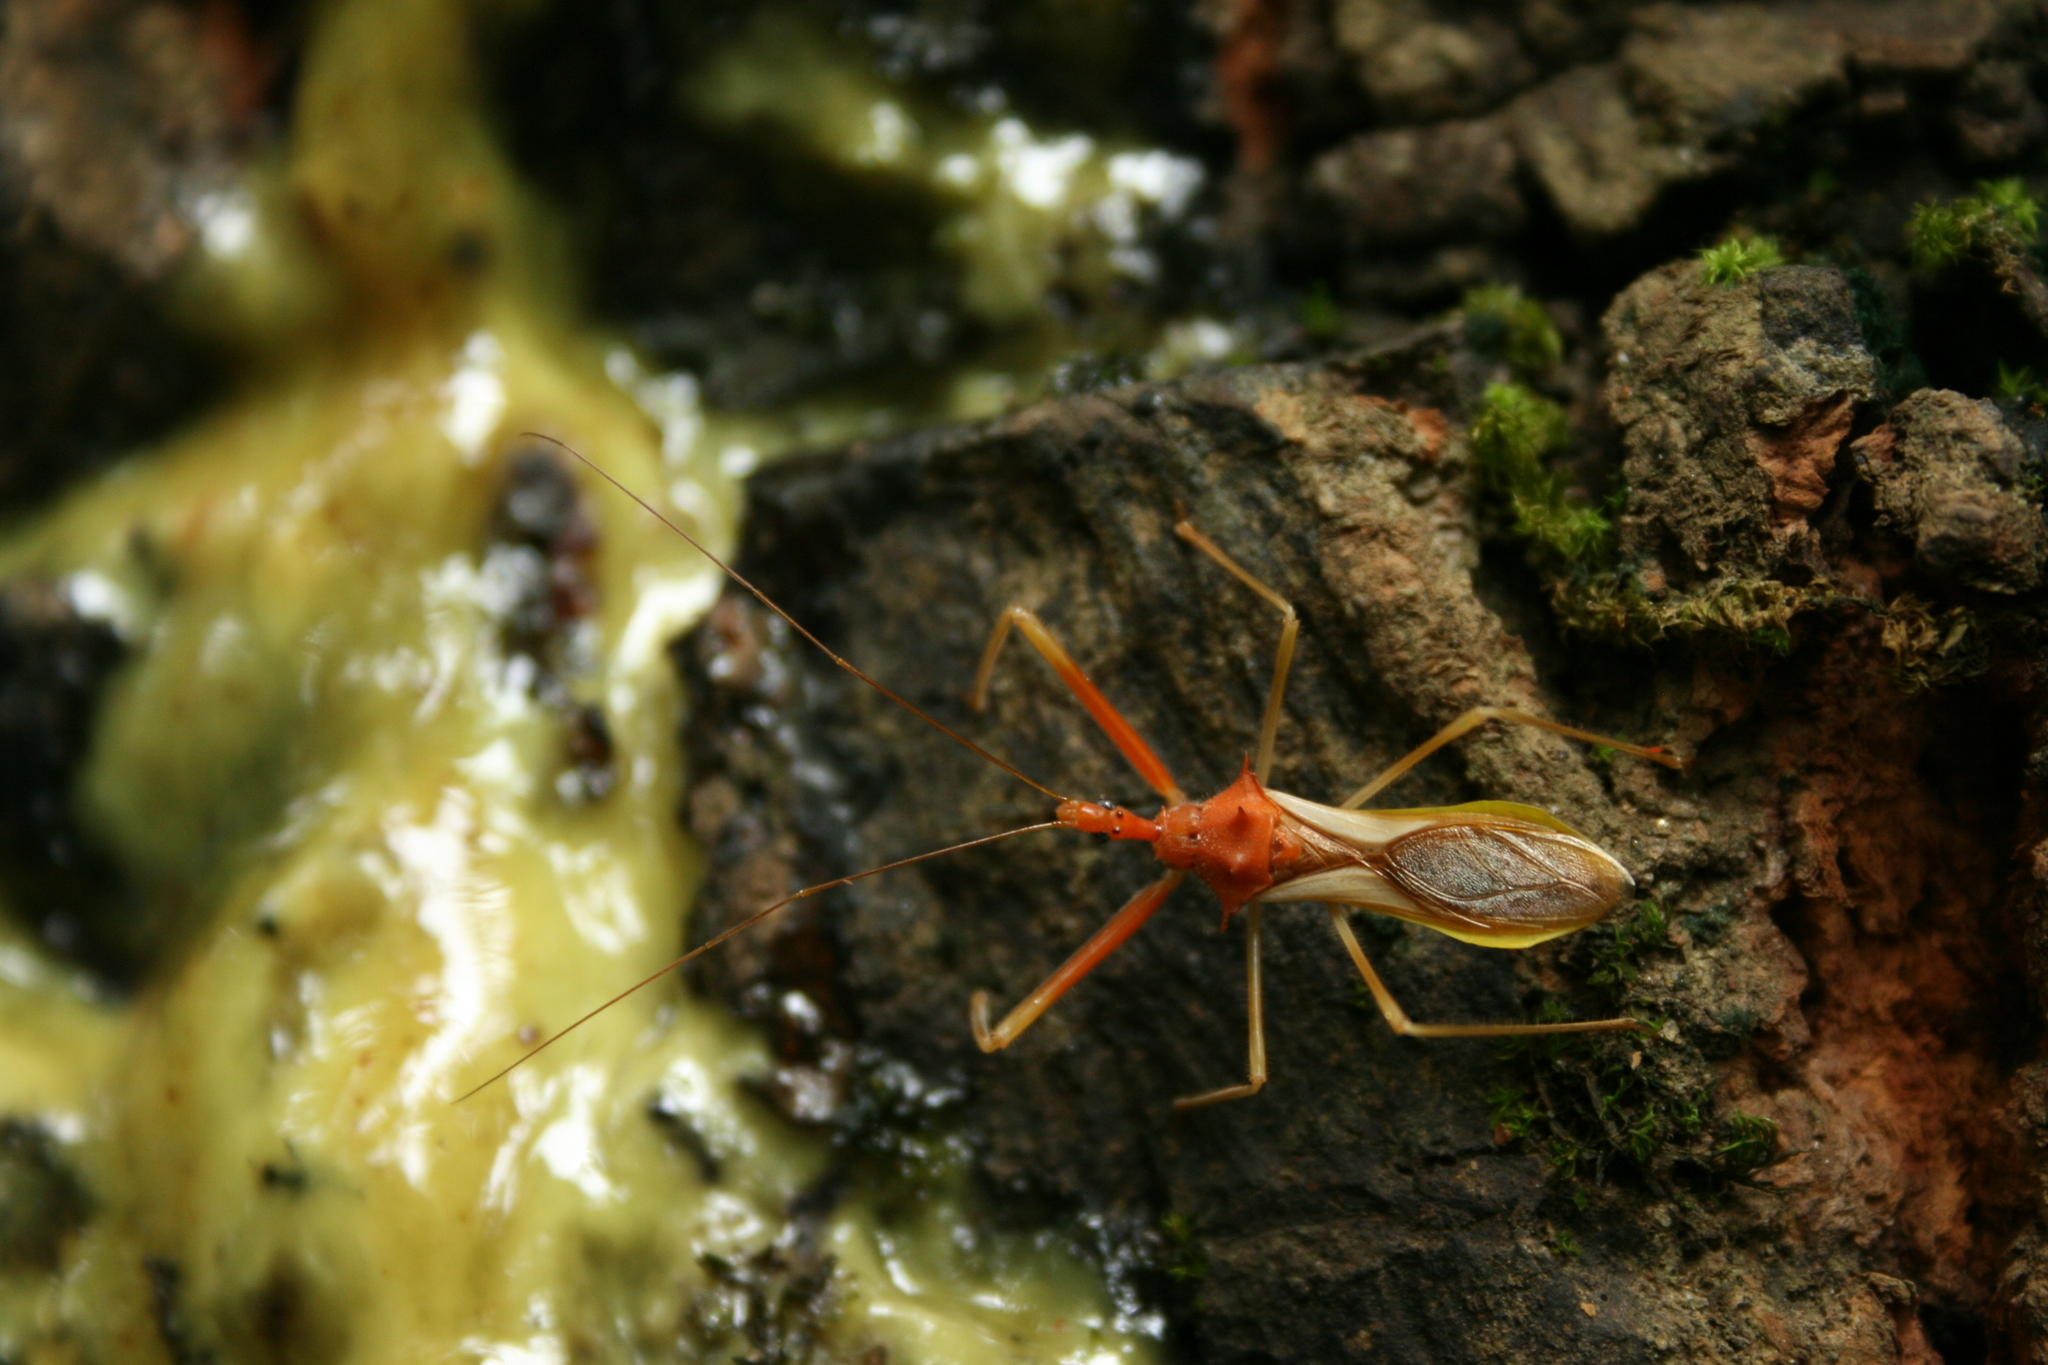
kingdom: Animalia
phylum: Arthropoda
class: Insecta
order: Hemiptera
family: Reduviidae
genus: Epidaus
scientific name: Epidaus bicolor
